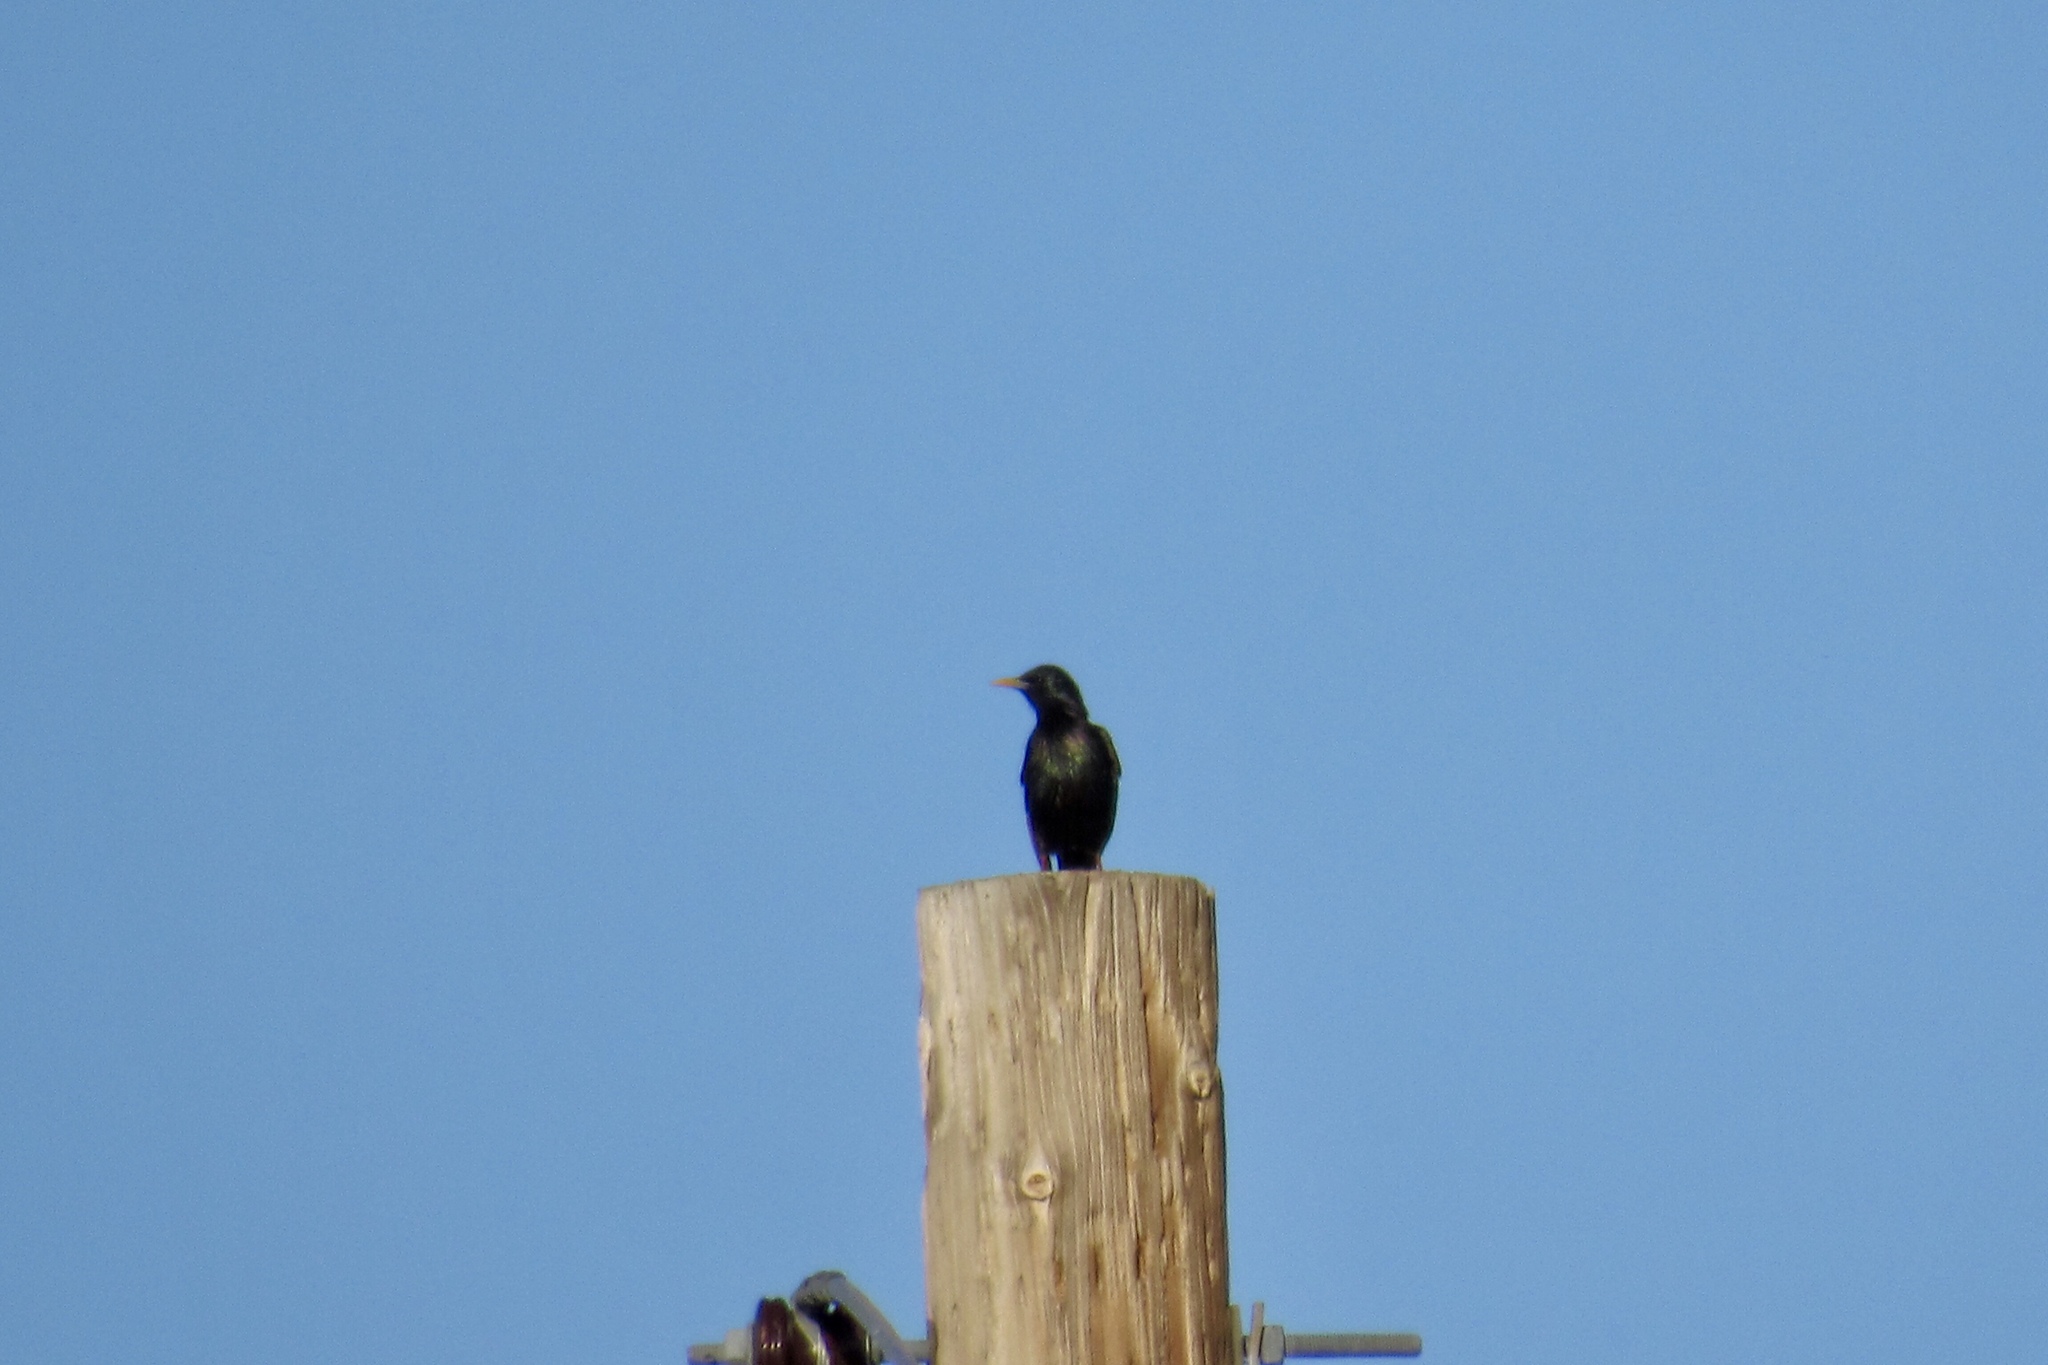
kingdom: Animalia
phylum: Chordata
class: Aves
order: Passeriformes
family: Sturnidae
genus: Sturnus
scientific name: Sturnus vulgaris
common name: Common starling
